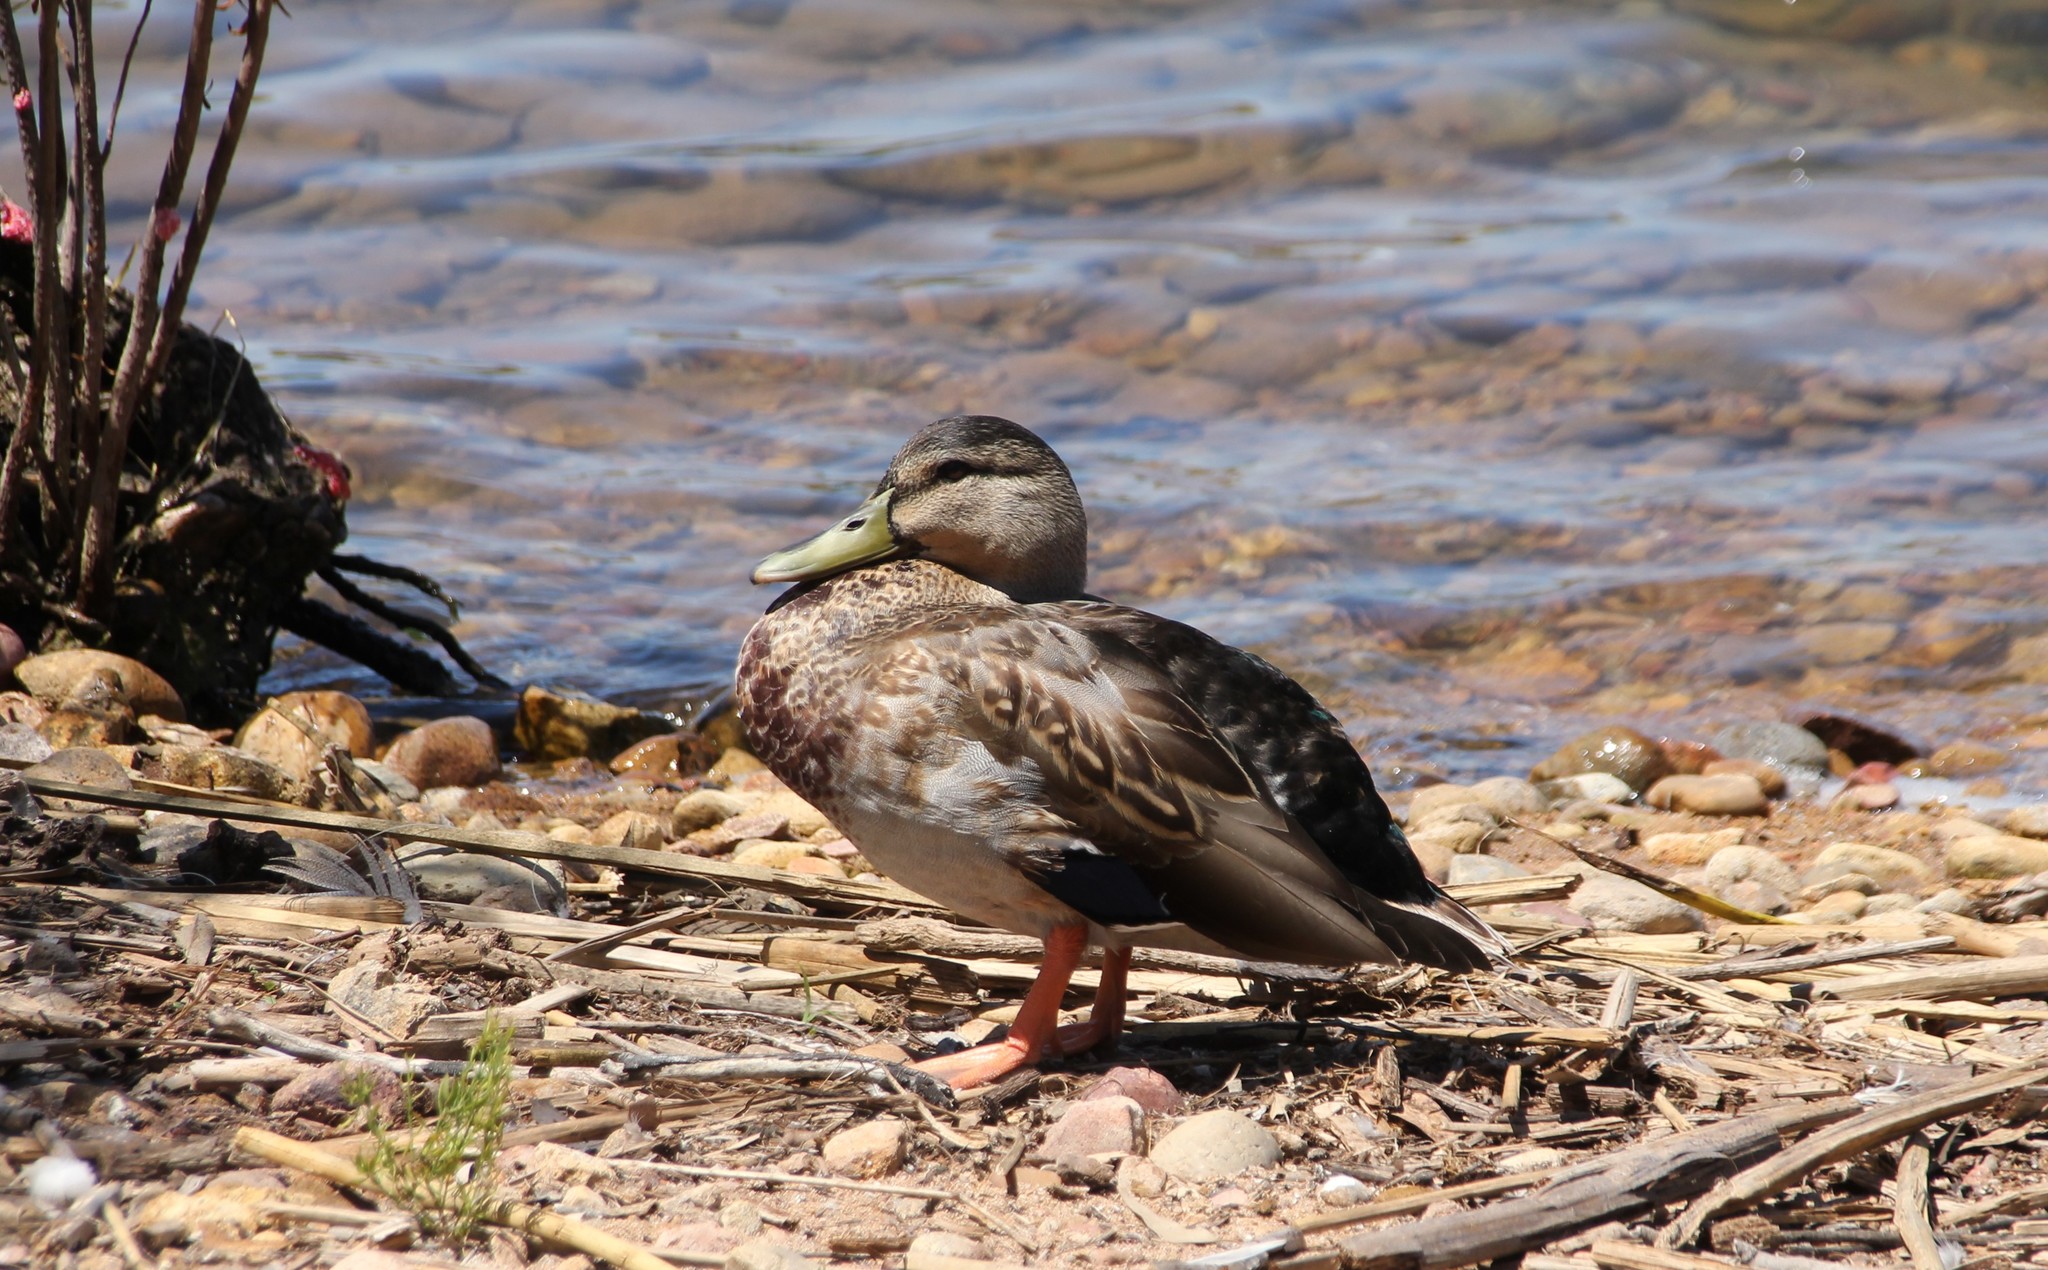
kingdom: Animalia
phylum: Chordata
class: Aves
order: Anseriformes
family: Anatidae
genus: Anas
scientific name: Anas platyrhynchos
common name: Mallard
